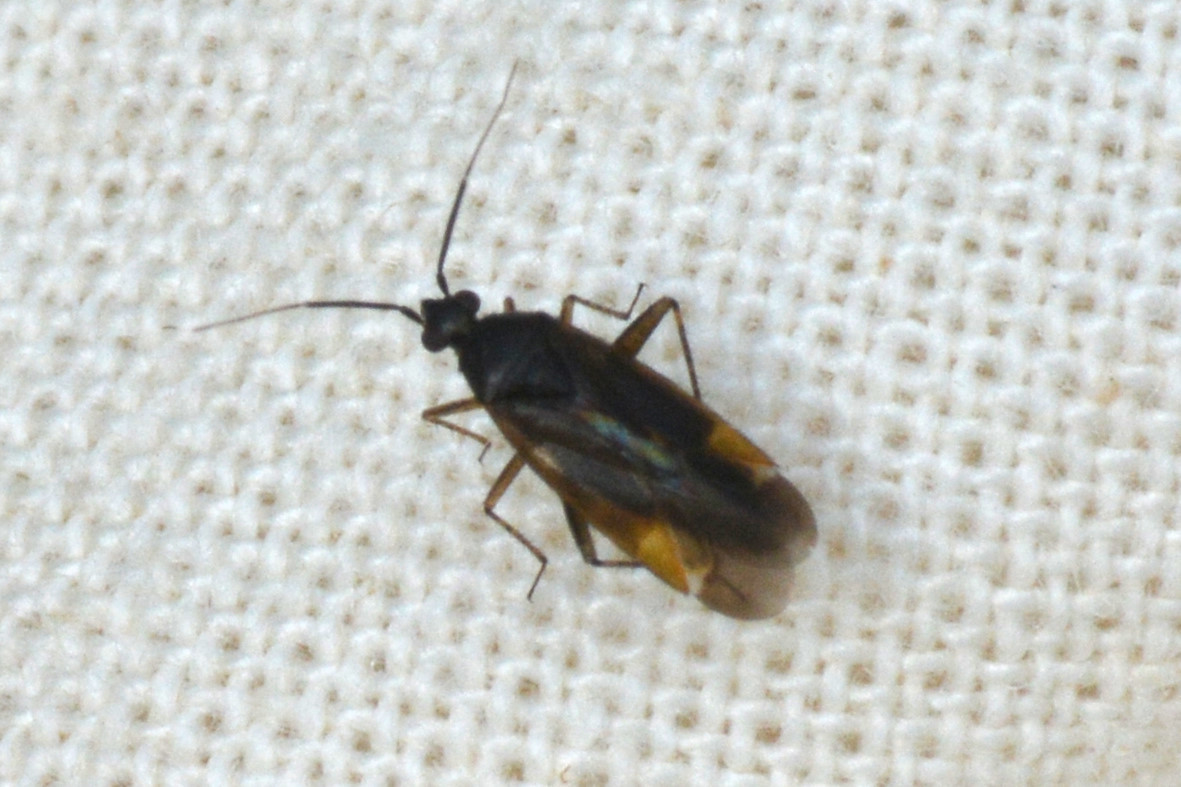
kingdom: Animalia
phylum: Arthropoda
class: Insecta
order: Hemiptera
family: Miridae
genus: Plagiognathus
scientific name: Plagiognathus arbustorum
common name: Plant bug
